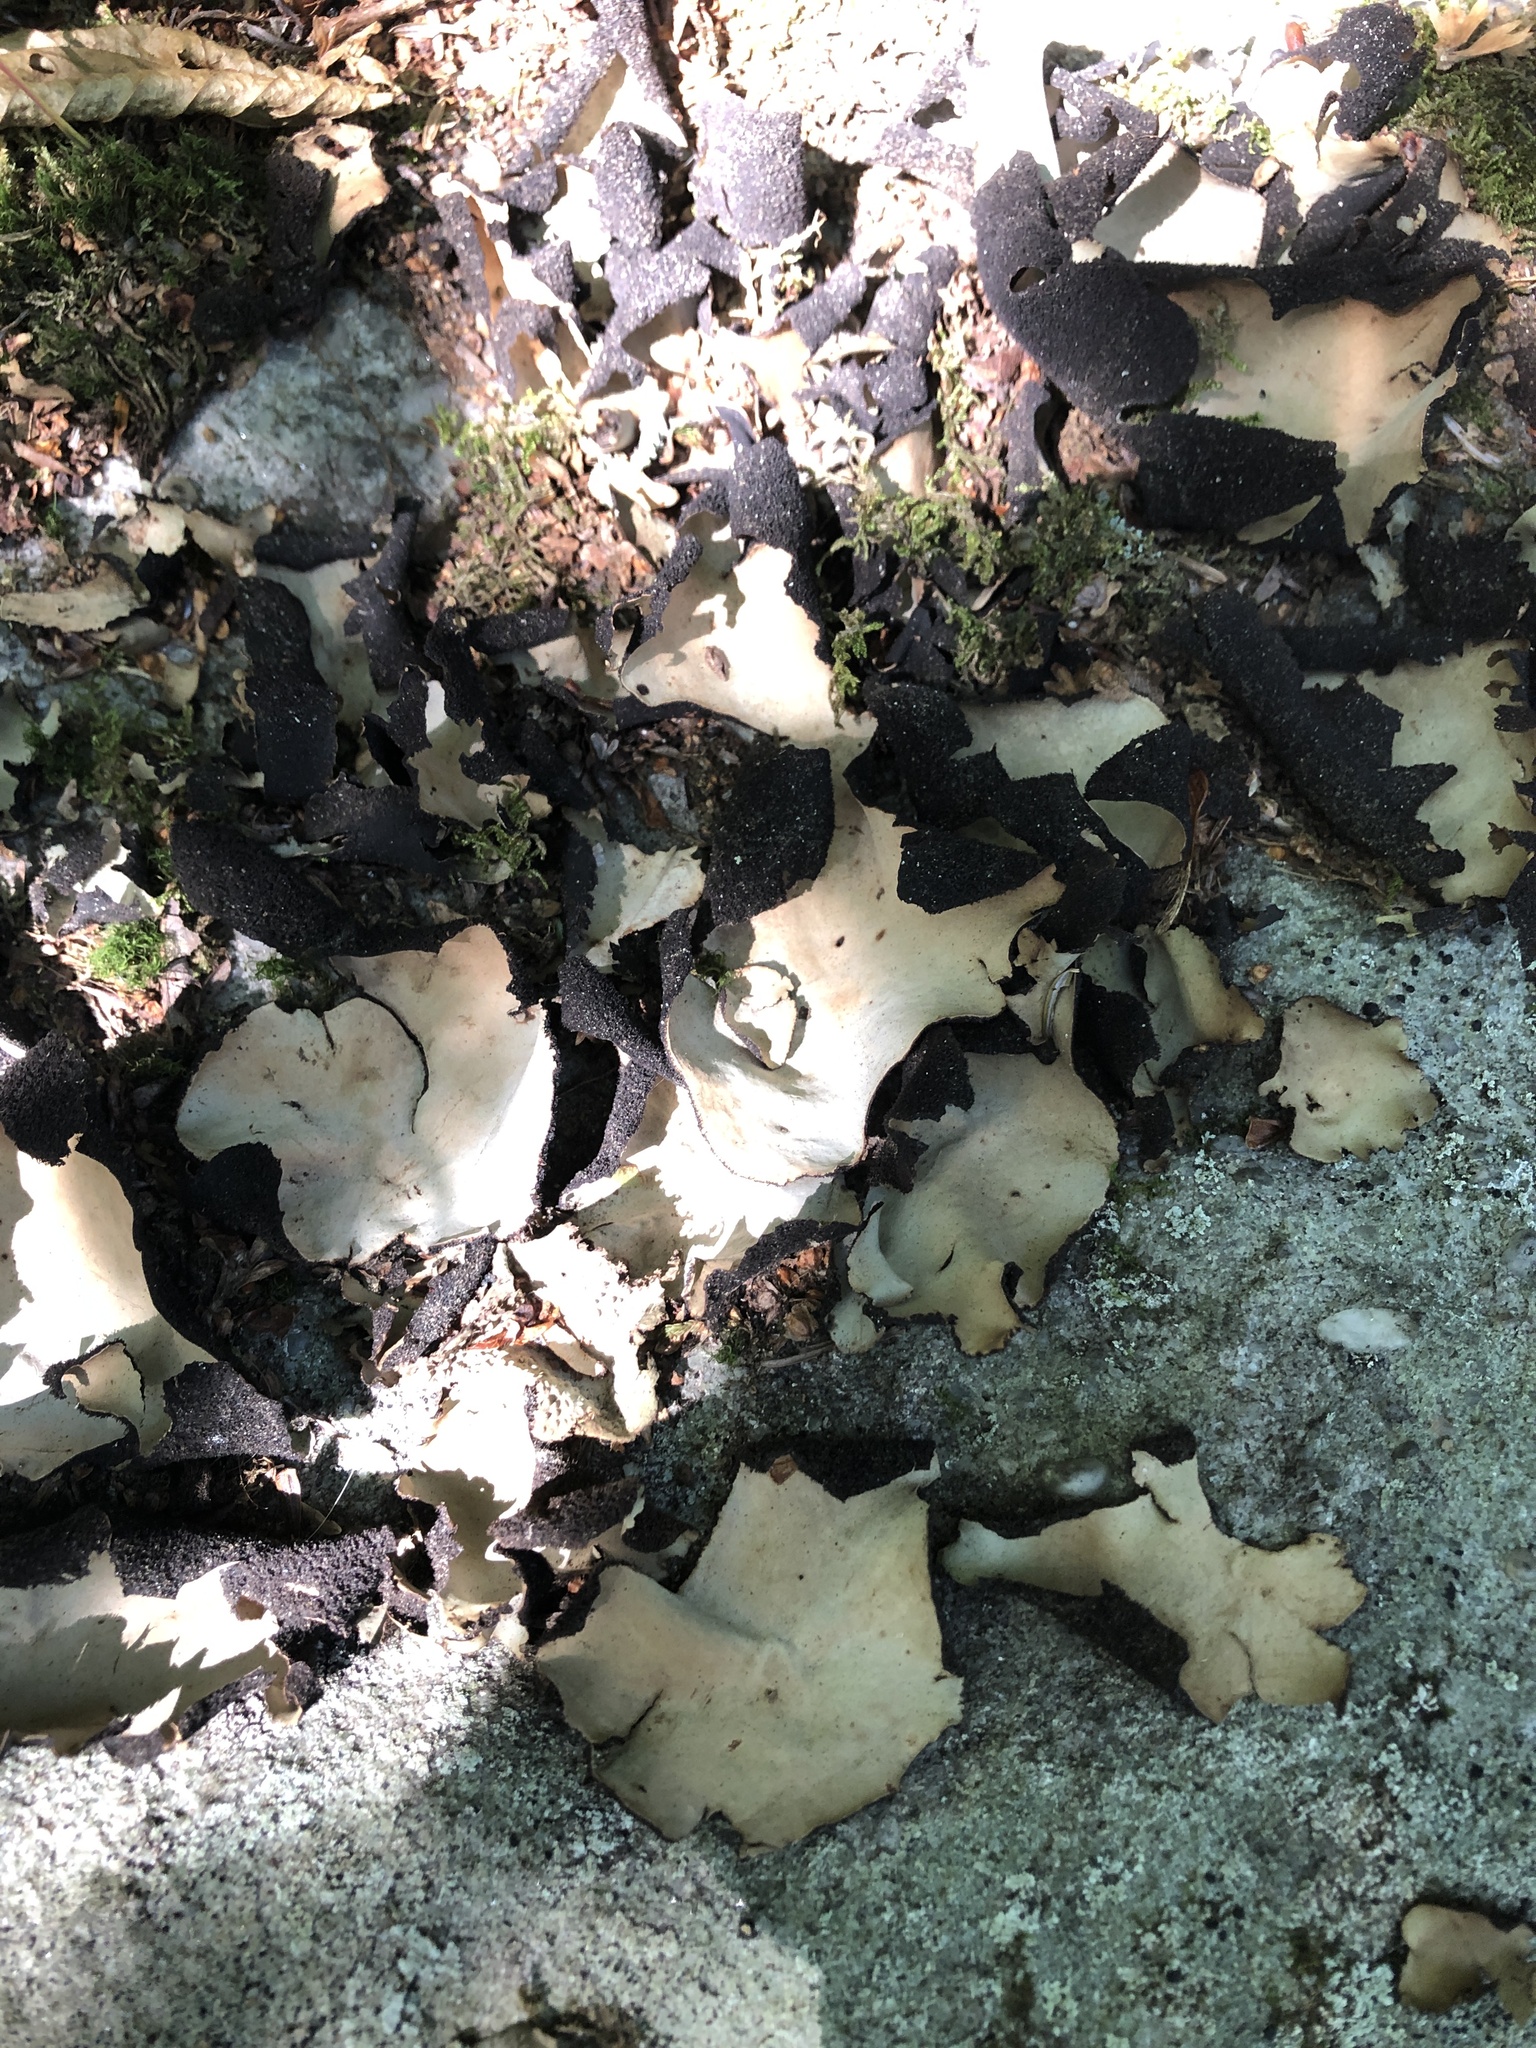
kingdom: Fungi
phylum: Ascomycota
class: Lecanoromycetes
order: Umbilicariales
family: Umbilicariaceae
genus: Umbilicaria
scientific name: Umbilicaria mammulata
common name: Smooth rock tripe
